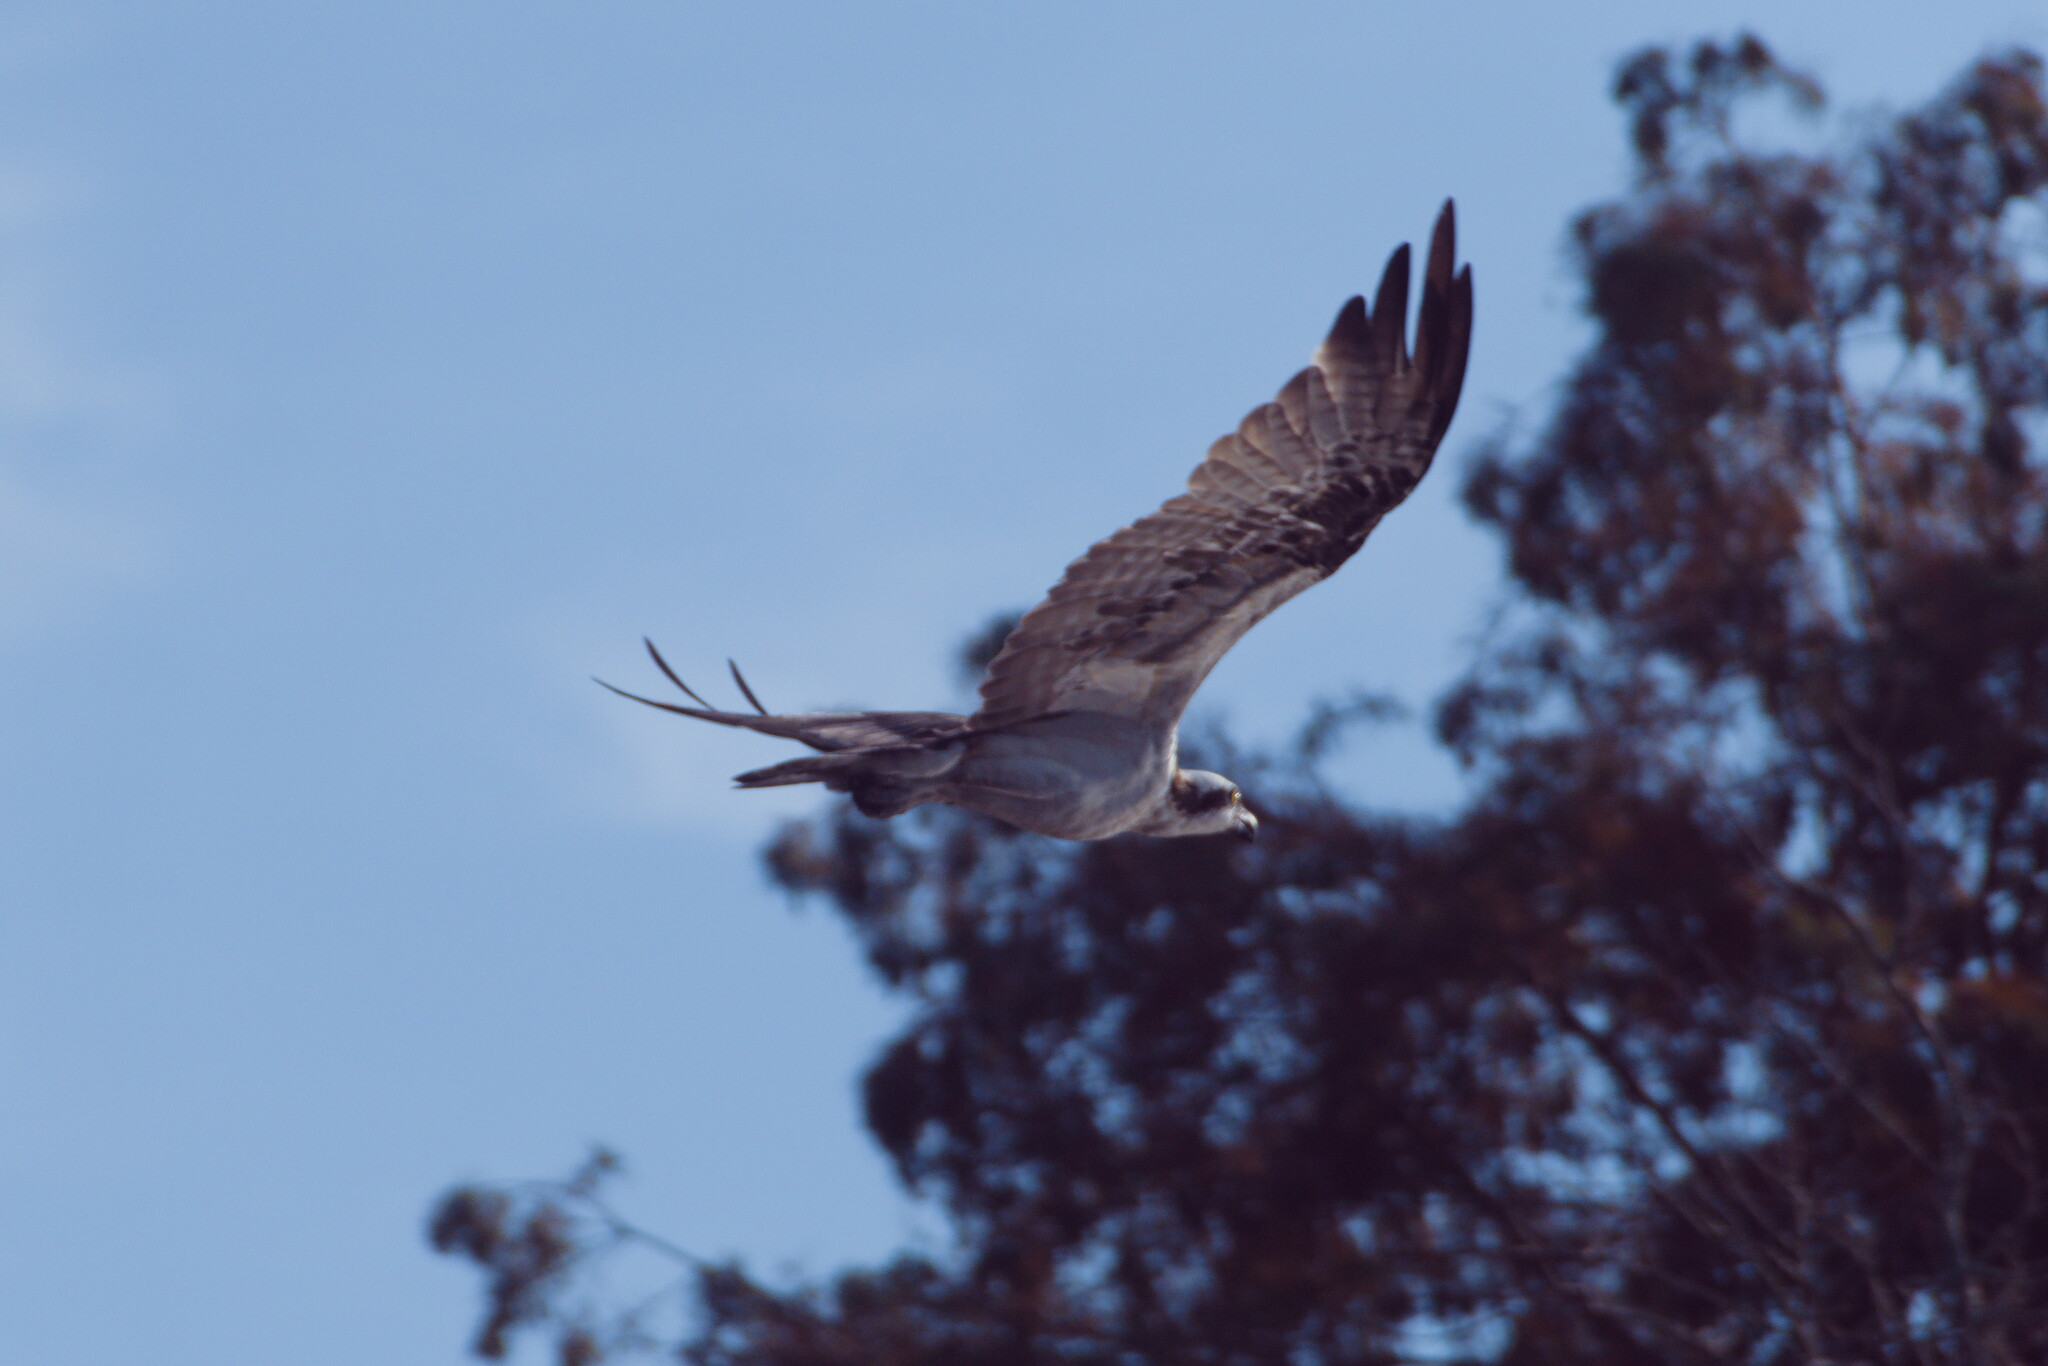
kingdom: Animalia
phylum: Chordata
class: Aves
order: Accipitriformes
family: Pandionidae
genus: Pandion
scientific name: Pandion haliaetus
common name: Osprey
